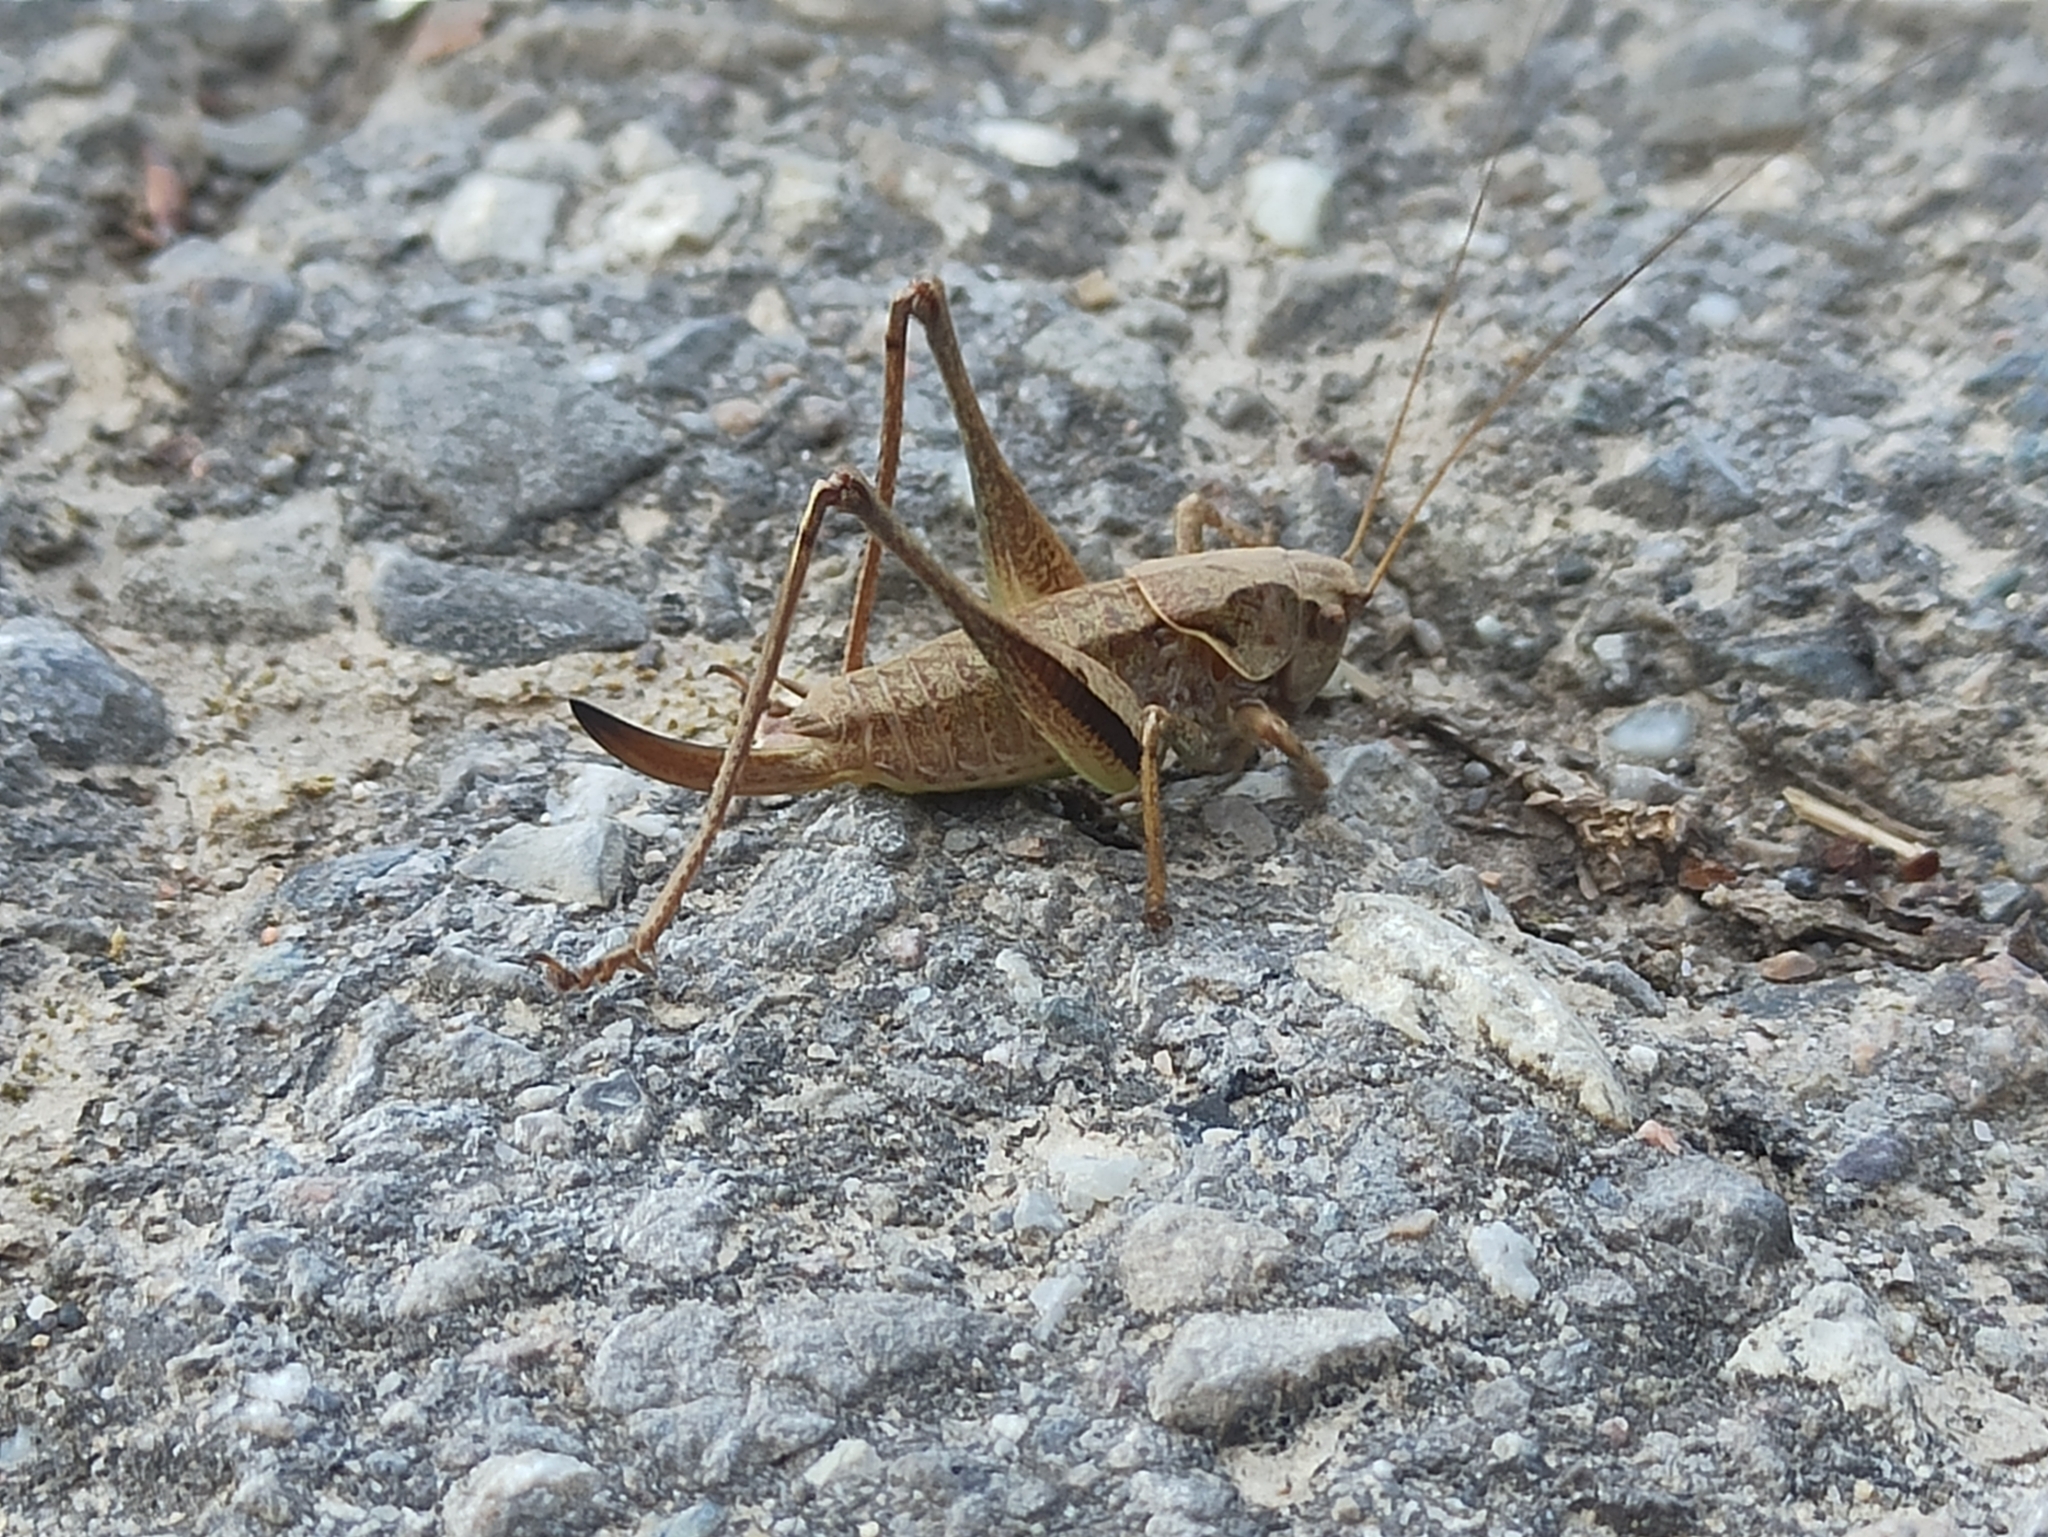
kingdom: Animalia
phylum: Arthropoda
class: Insecta
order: Orthoptera
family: Tettigoniidae
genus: Pholidoptera
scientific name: Pholidoptera griseoaptera
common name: Dark bush-cricket
